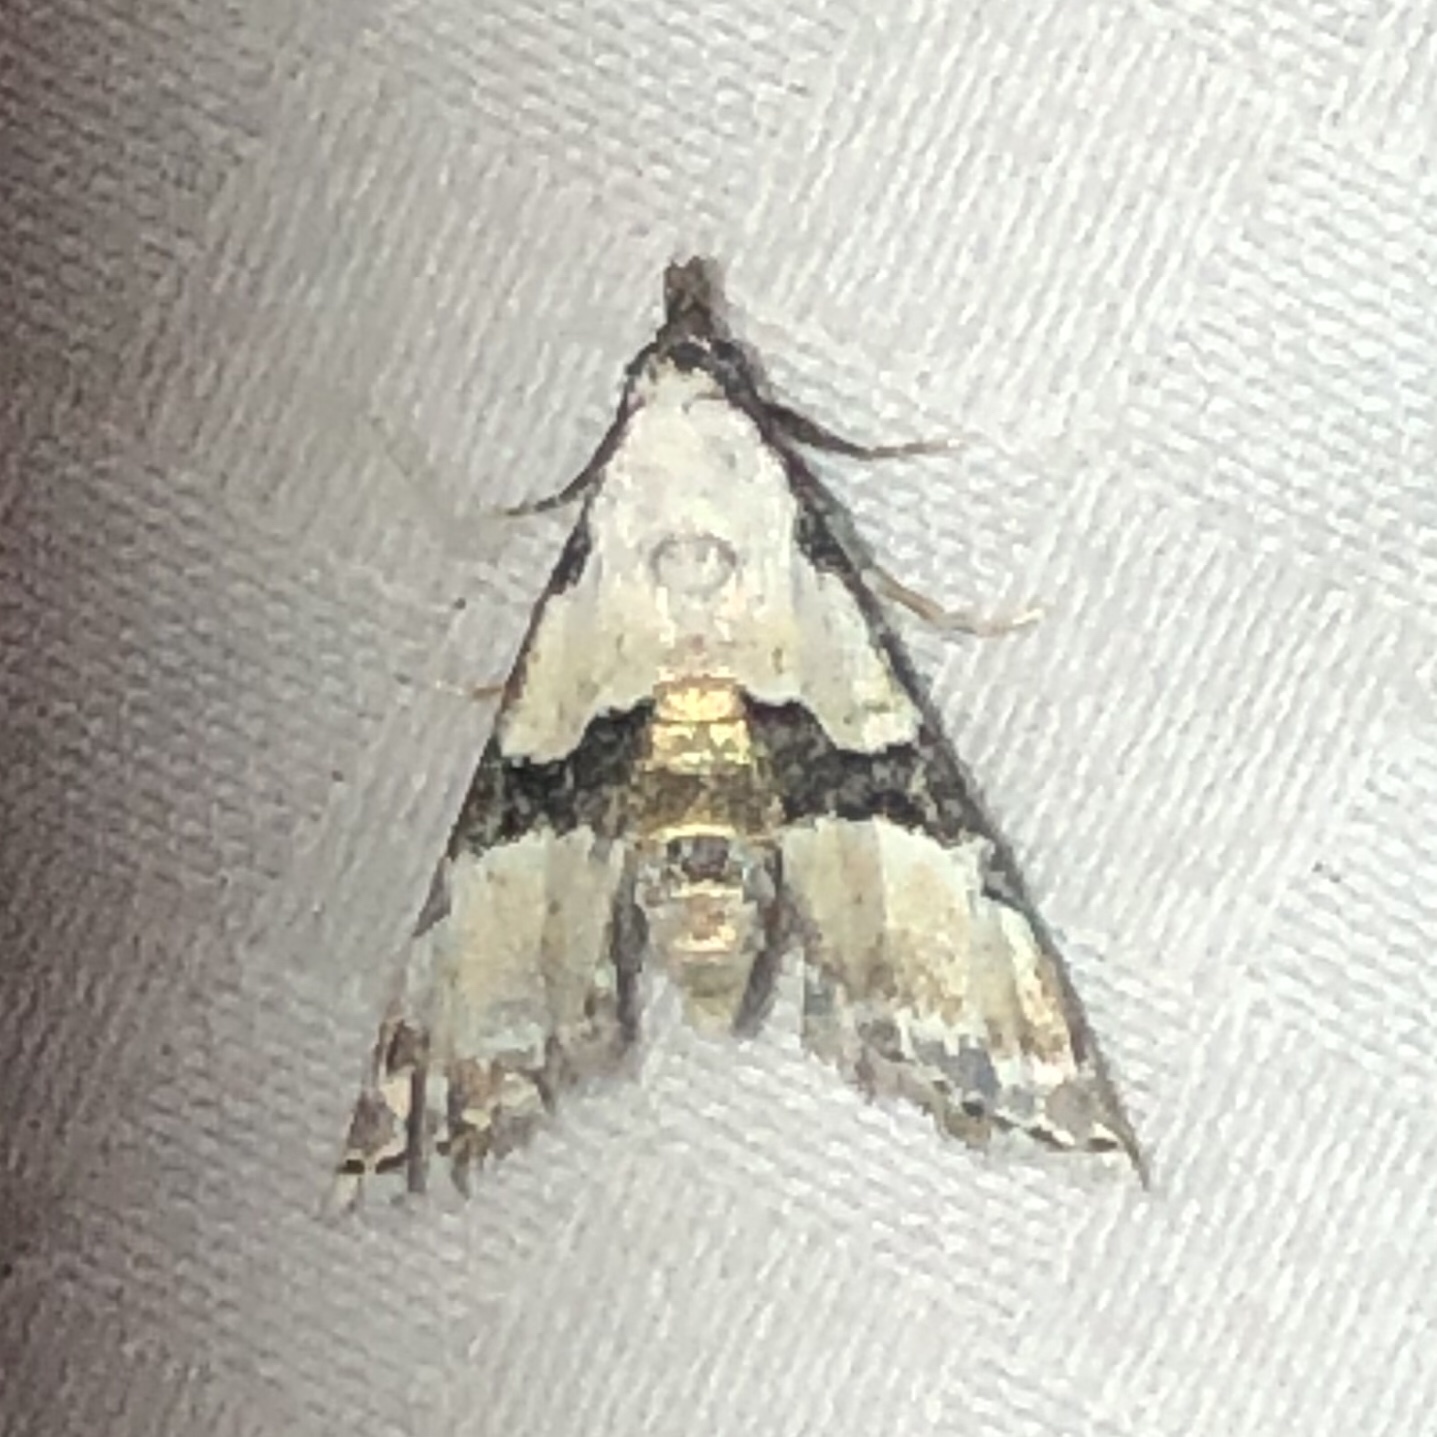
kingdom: Animalia
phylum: Arthropoda
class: Insecta
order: Lepidoptera
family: Noctuidae
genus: Nigetia
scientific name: Nigetia formosalis
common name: Thin-winged owlet
